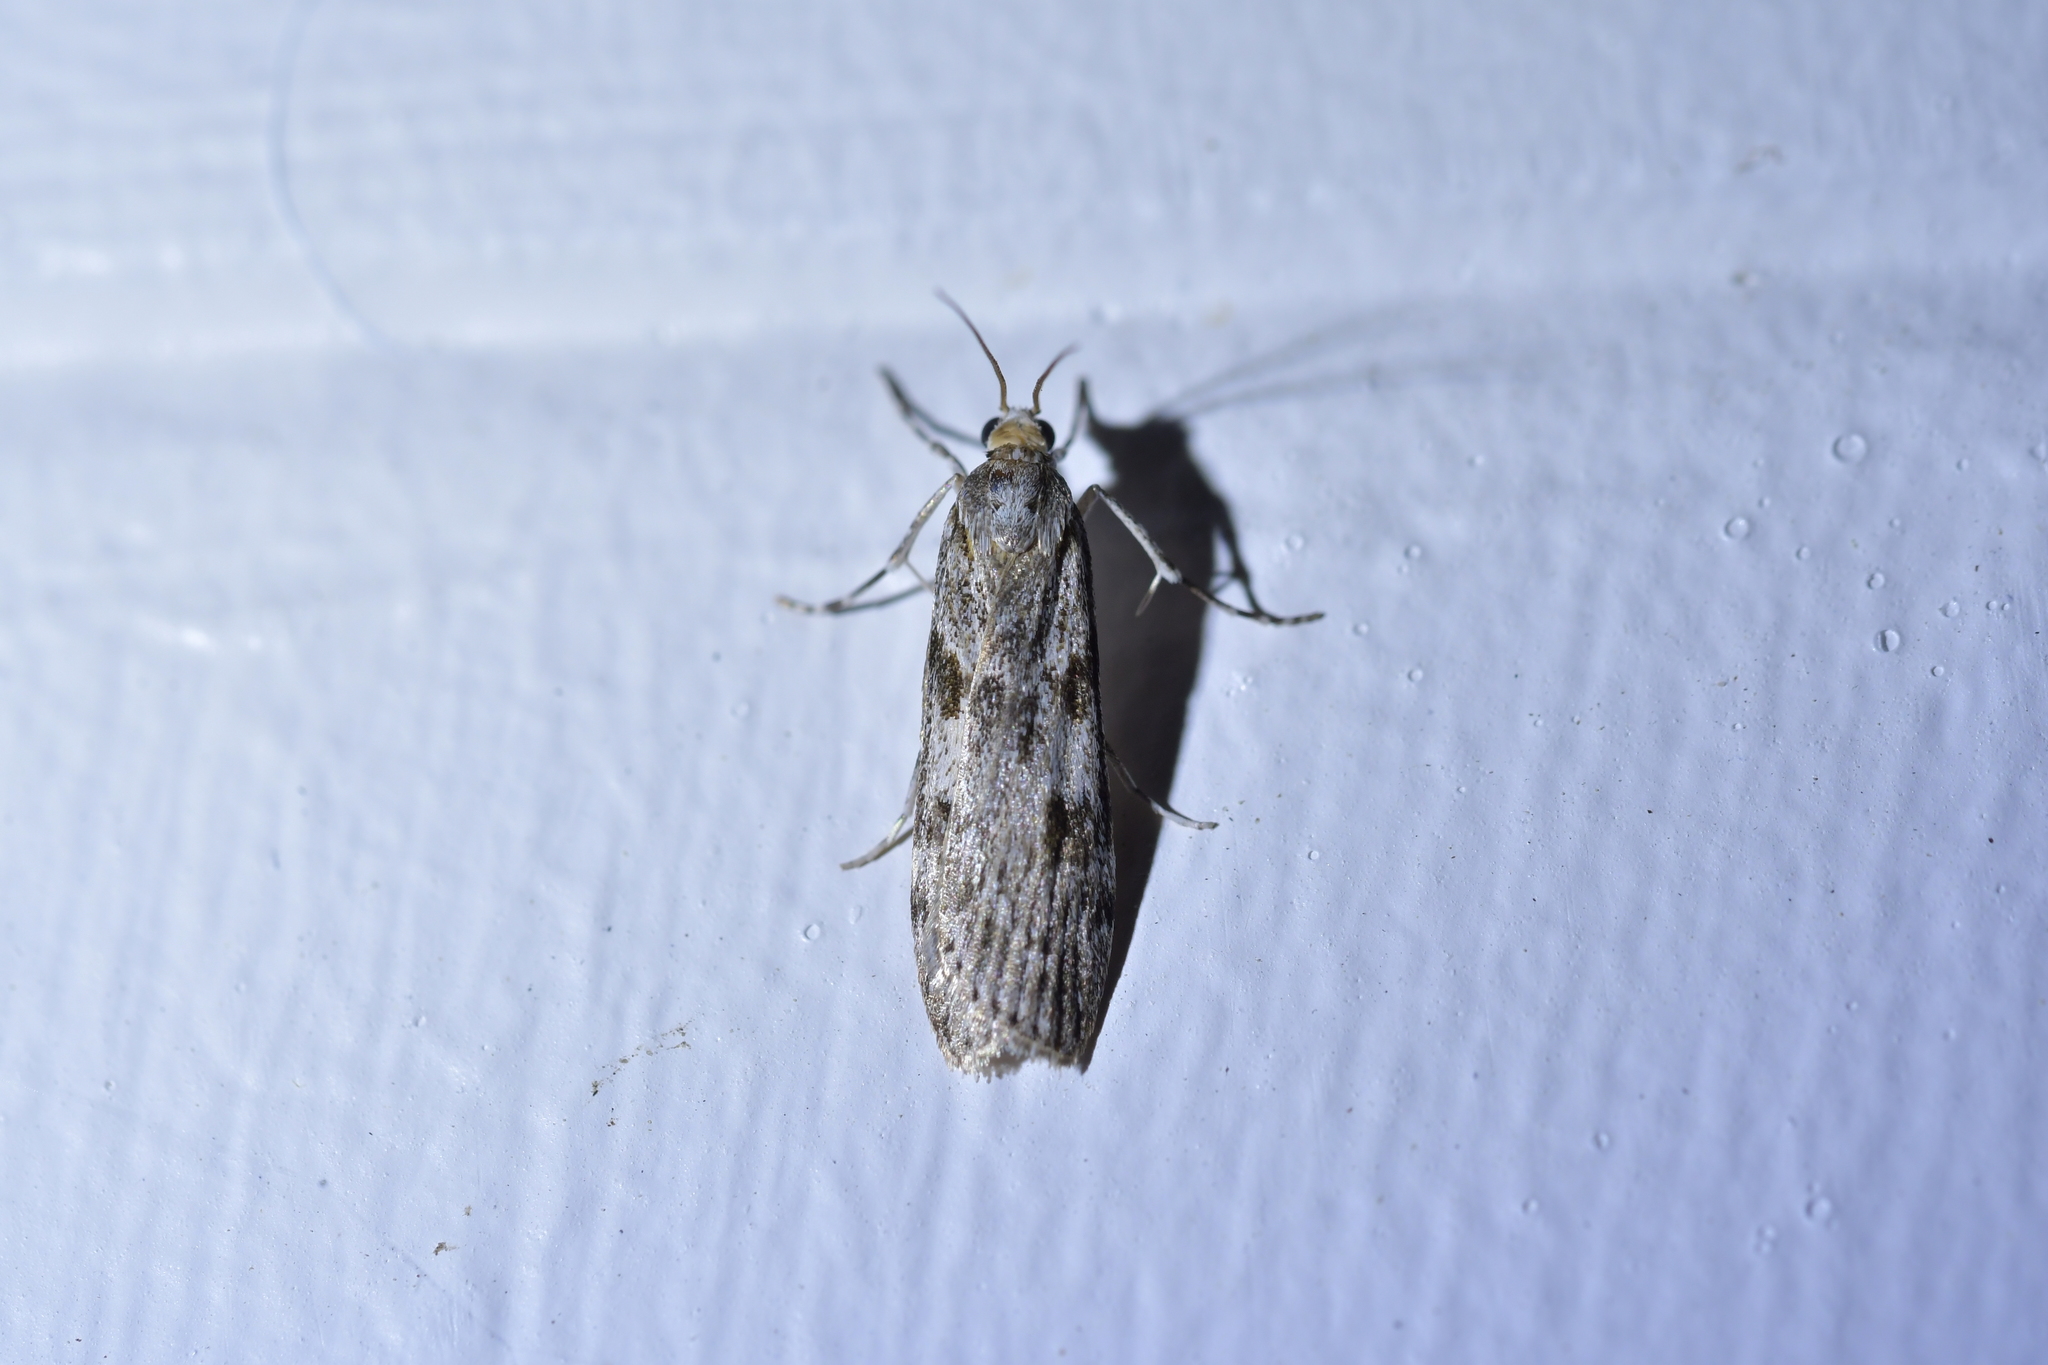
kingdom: Animalia
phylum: Arthropoda
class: Insecta
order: Lepidoptera
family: Crambidae
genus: Scoparia
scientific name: Scoparia halopis
